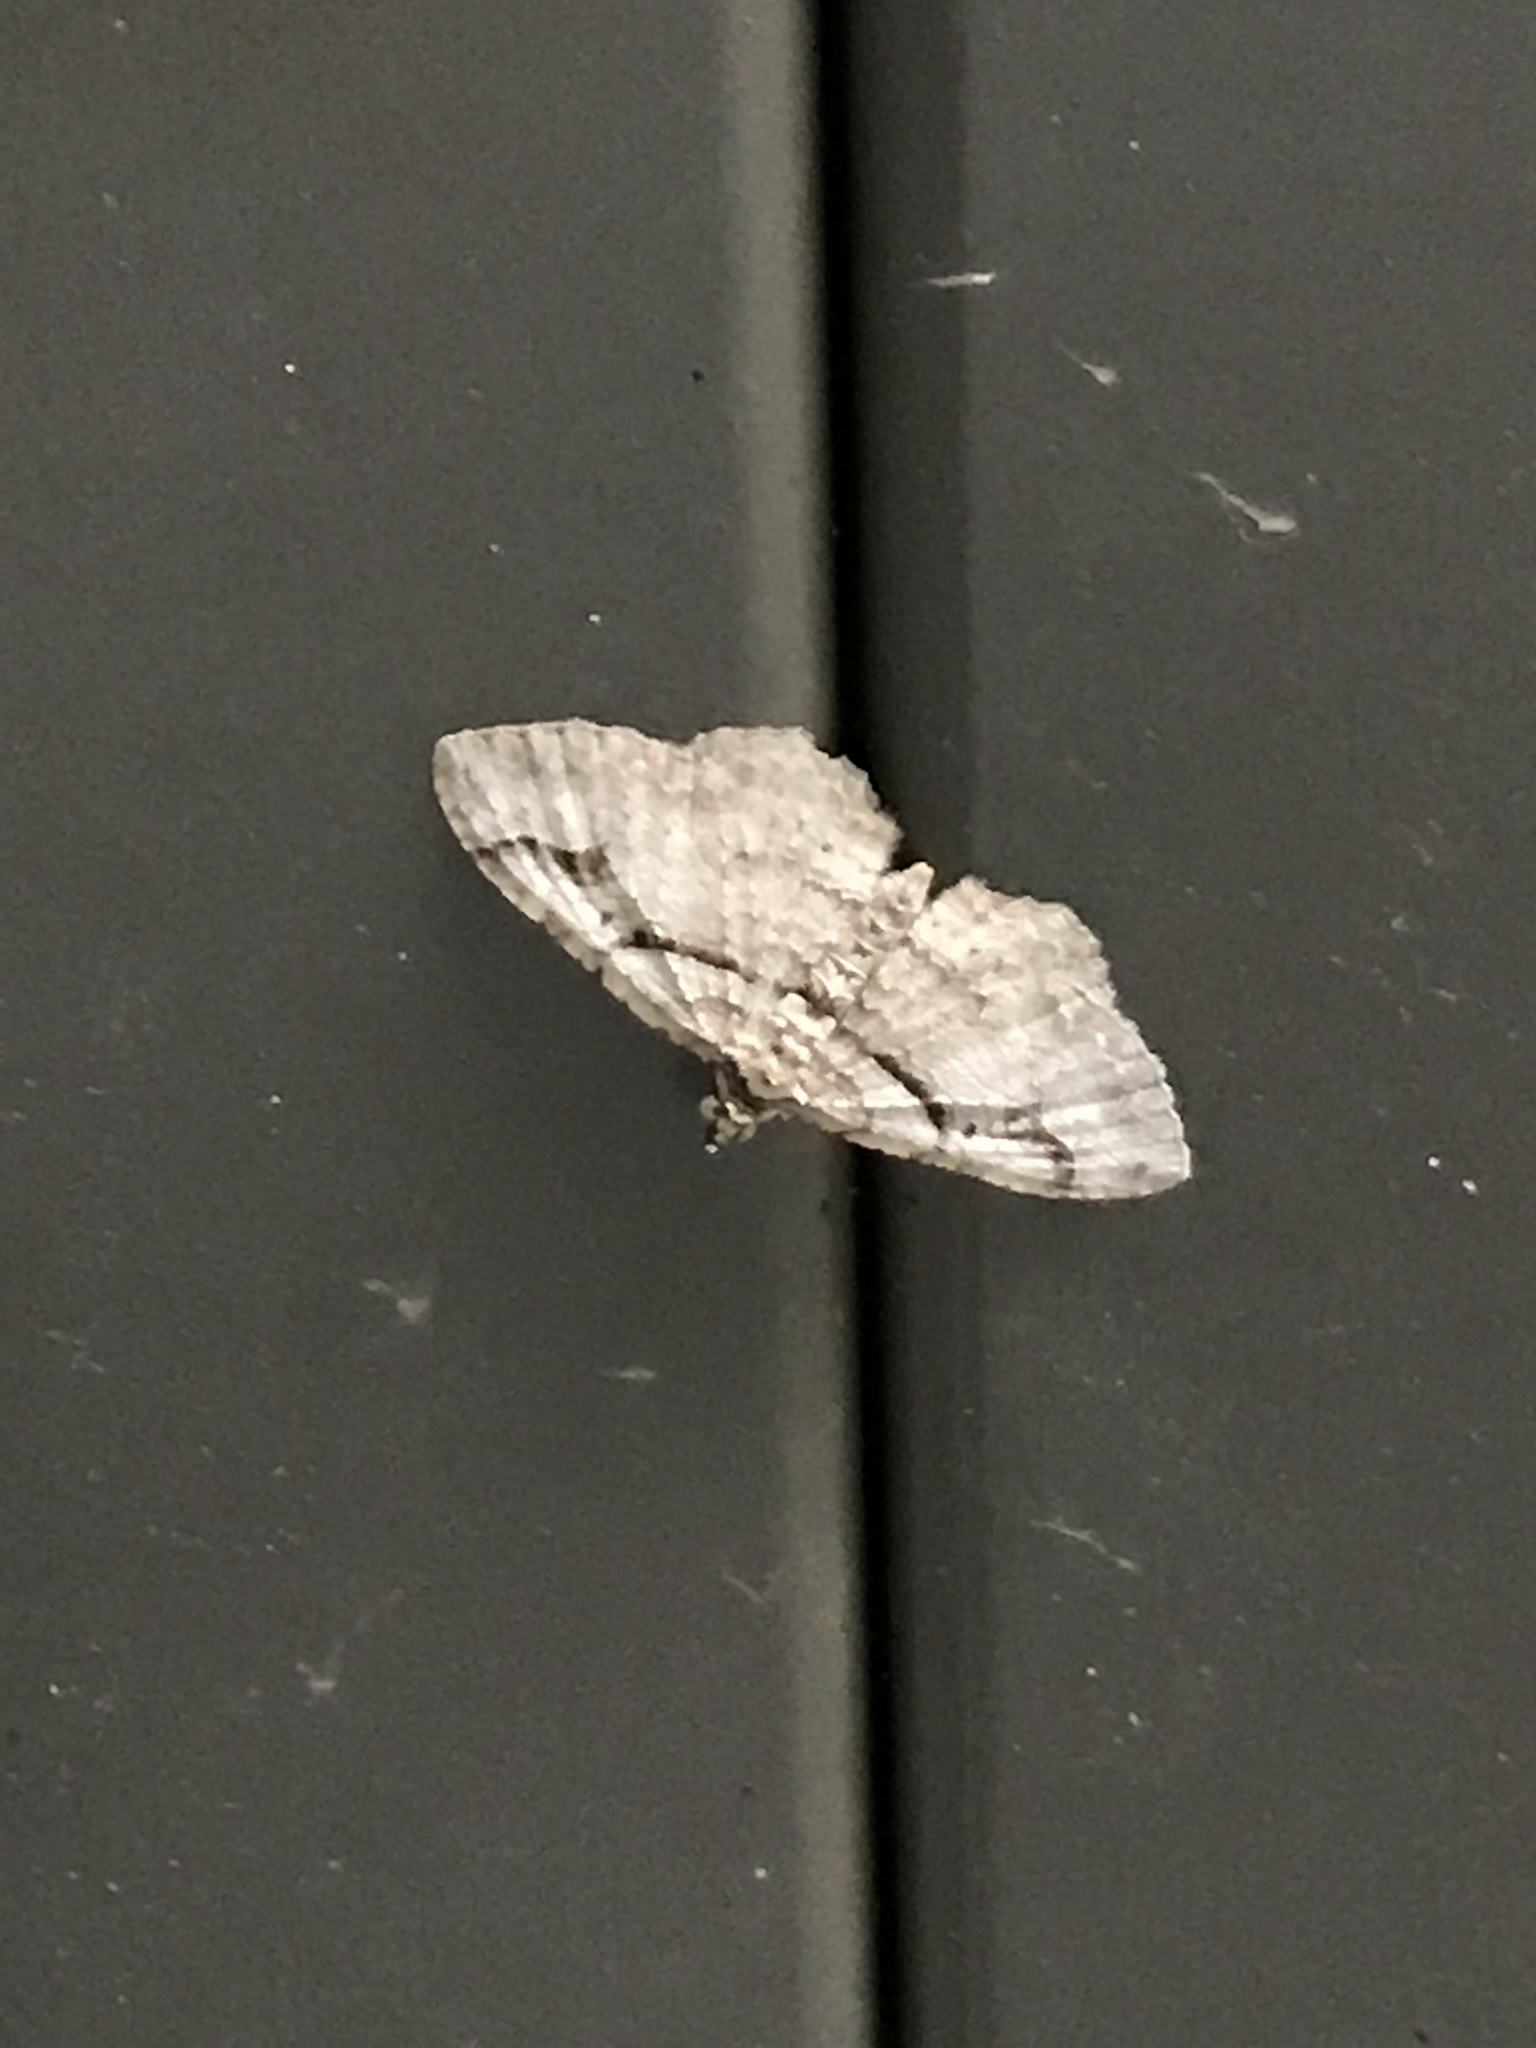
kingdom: Animalia
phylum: Arthropoda
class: Insecta
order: Lepidoptera
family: Geometridae
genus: Costaconvexa
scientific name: Costaconvexa centrostrigaria
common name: Bent-line carpet
